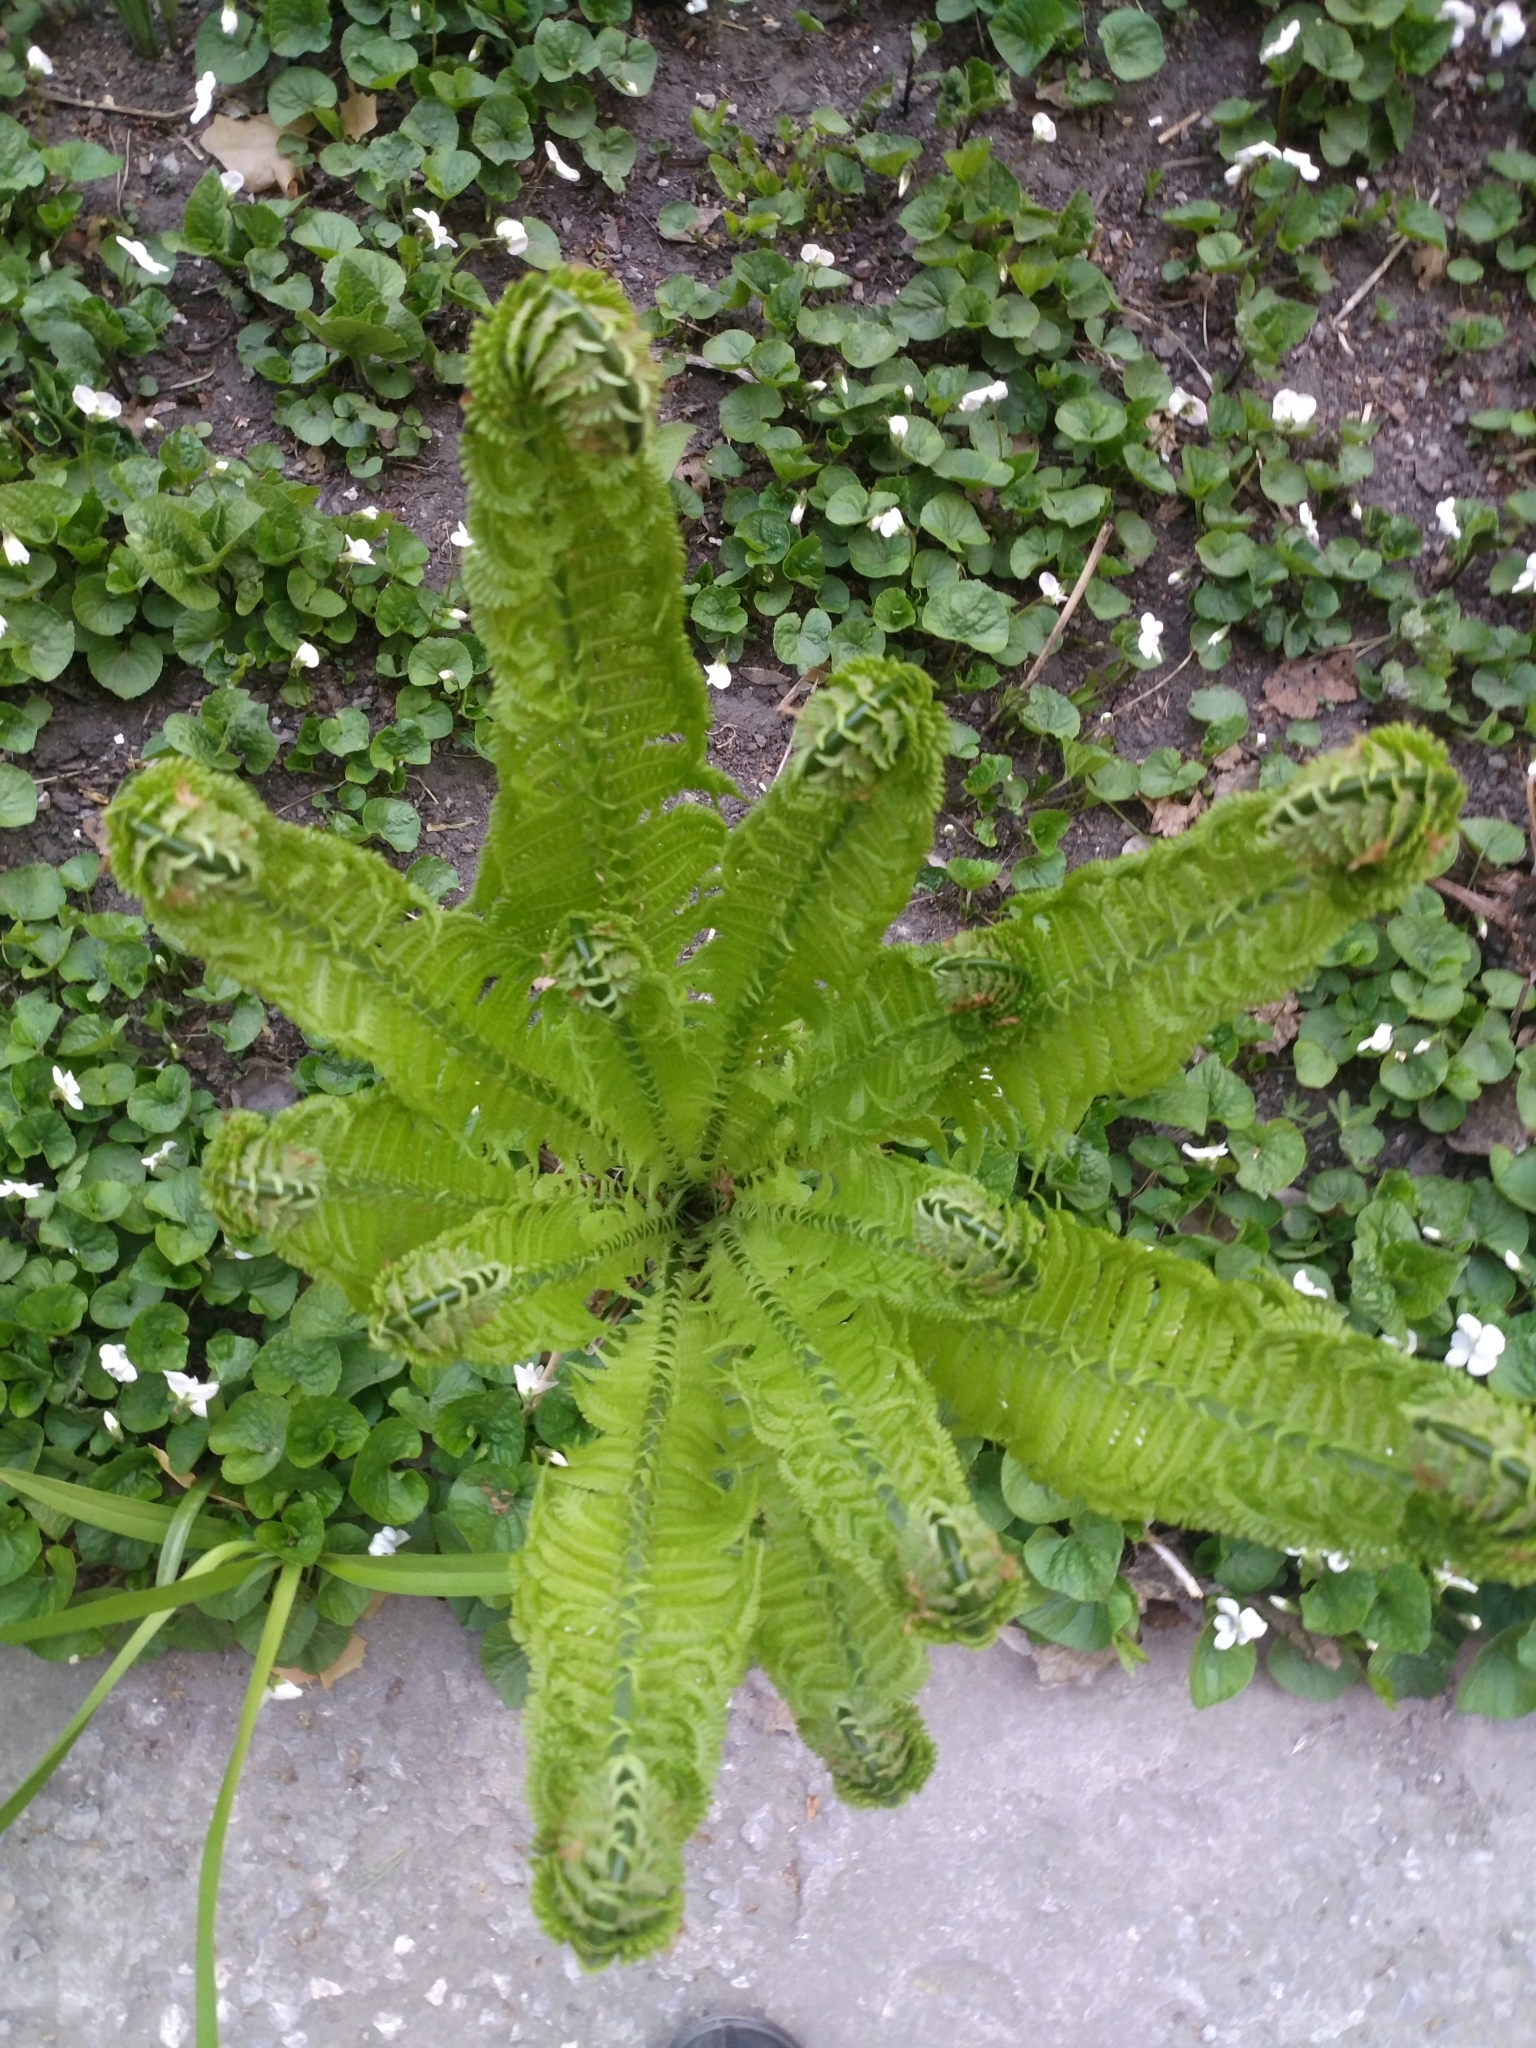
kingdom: Plantae
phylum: Tracheophyta
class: Polypodiopsida
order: Polypodiales
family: Onocleaceae
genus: Matteuccia
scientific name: Matteuccia struthiopteris
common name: Ostrich fern
